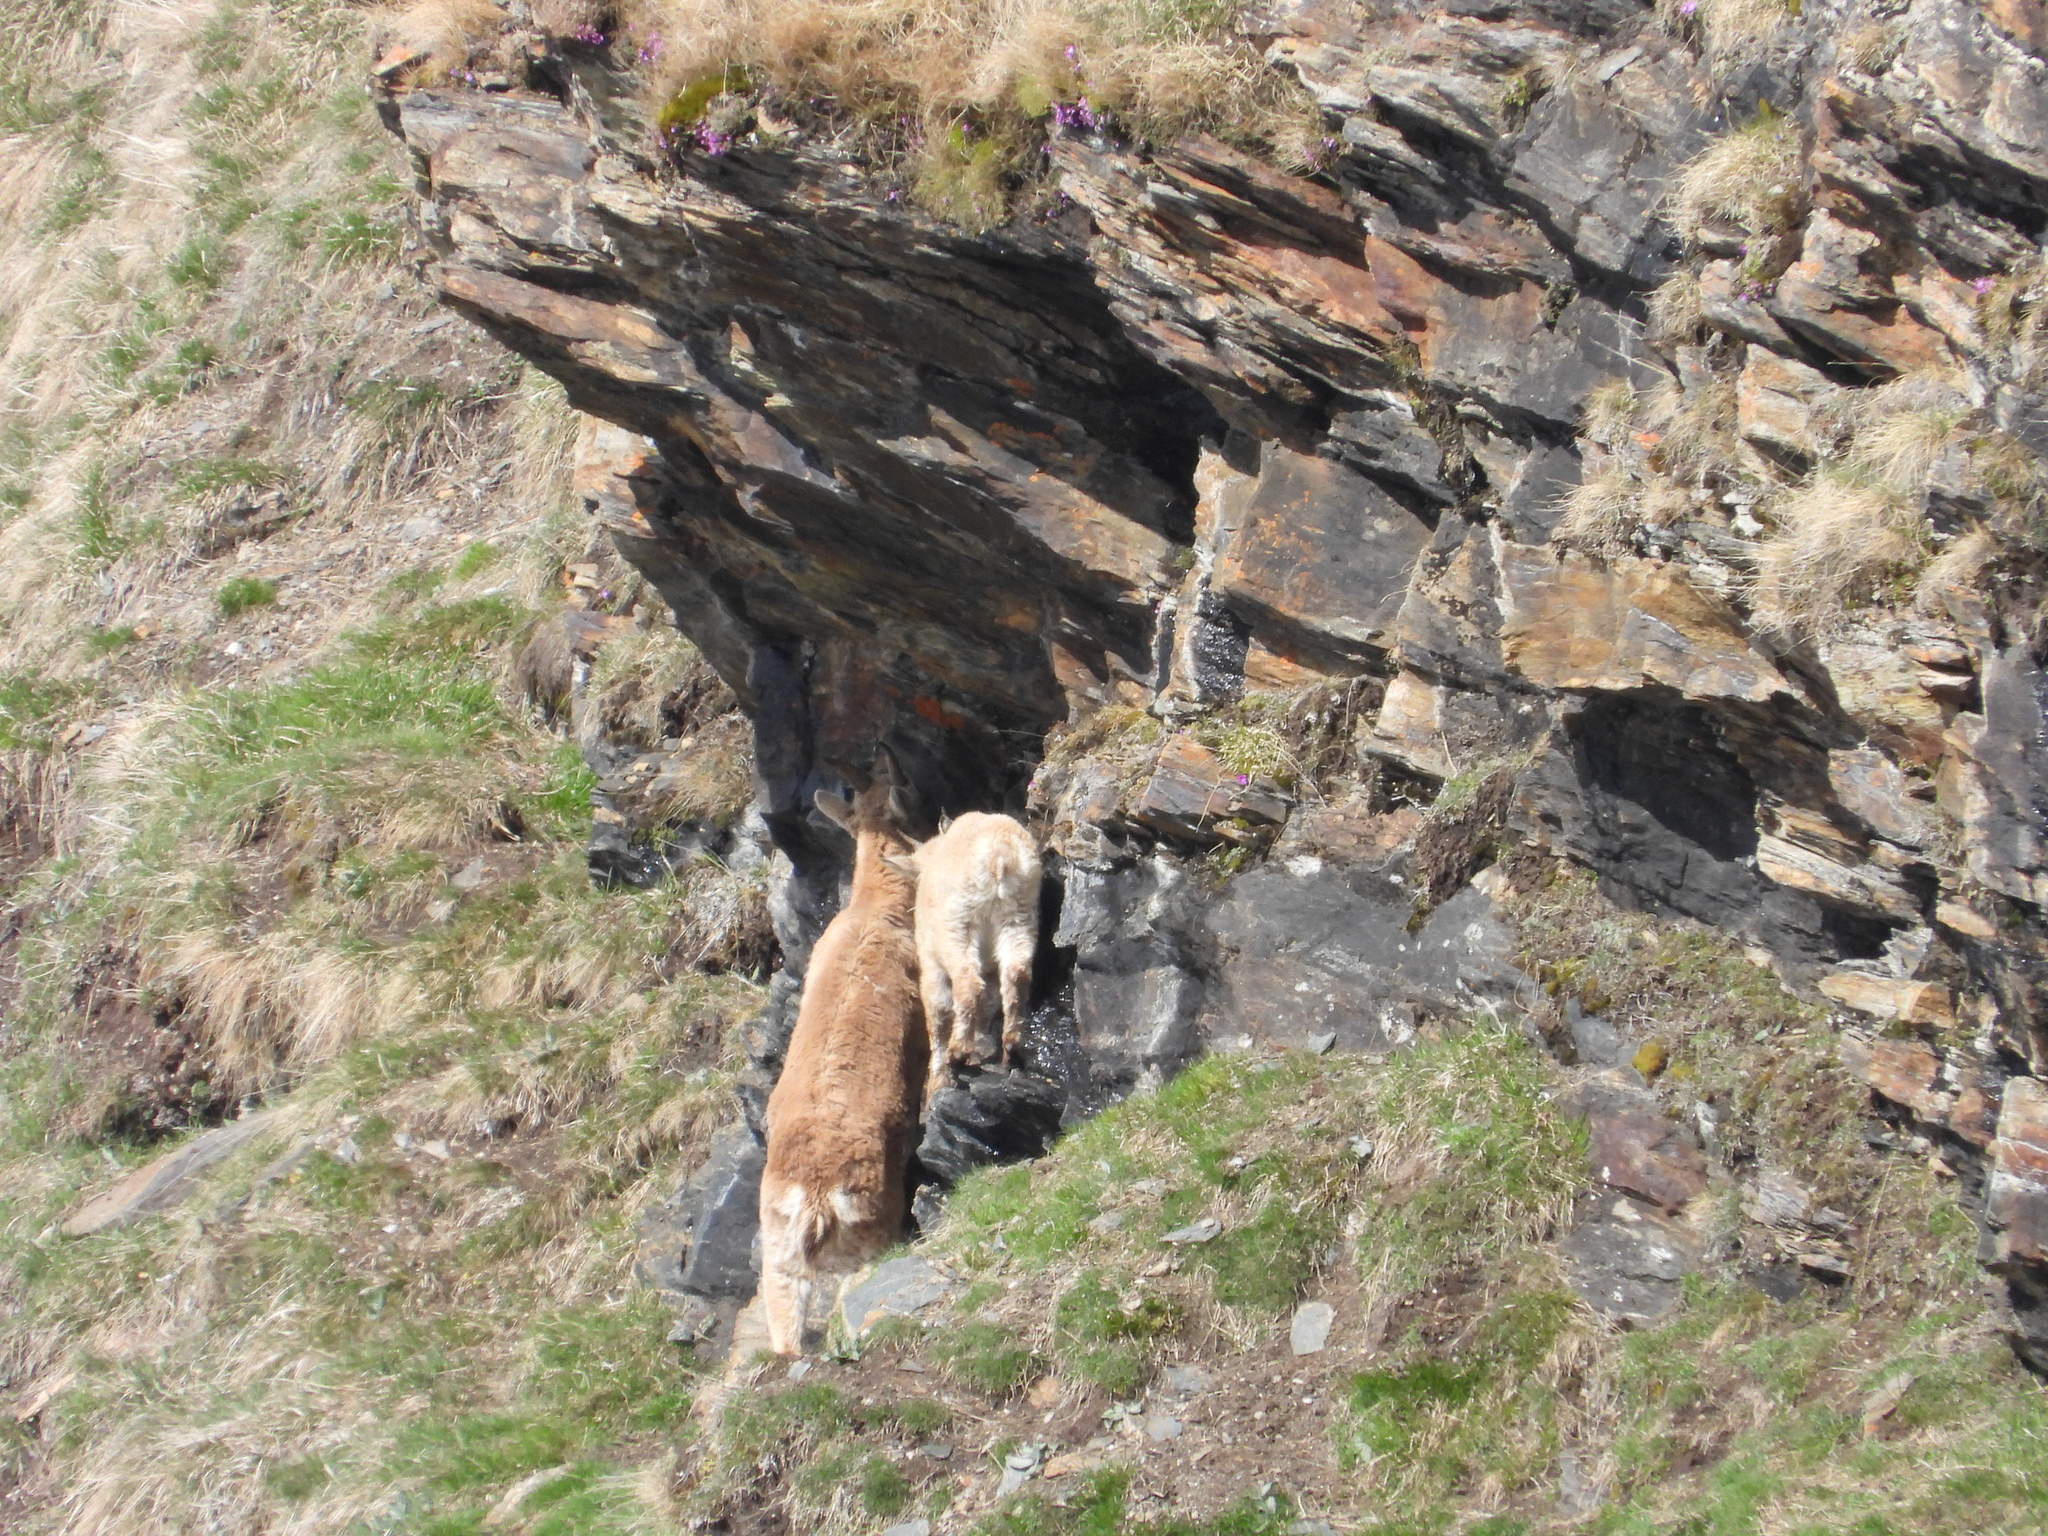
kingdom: Animalia
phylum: Chordata
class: Mammalia
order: Artiodactyla
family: Bovidae
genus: Capra
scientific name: Capra ibex
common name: Alpine ibex
